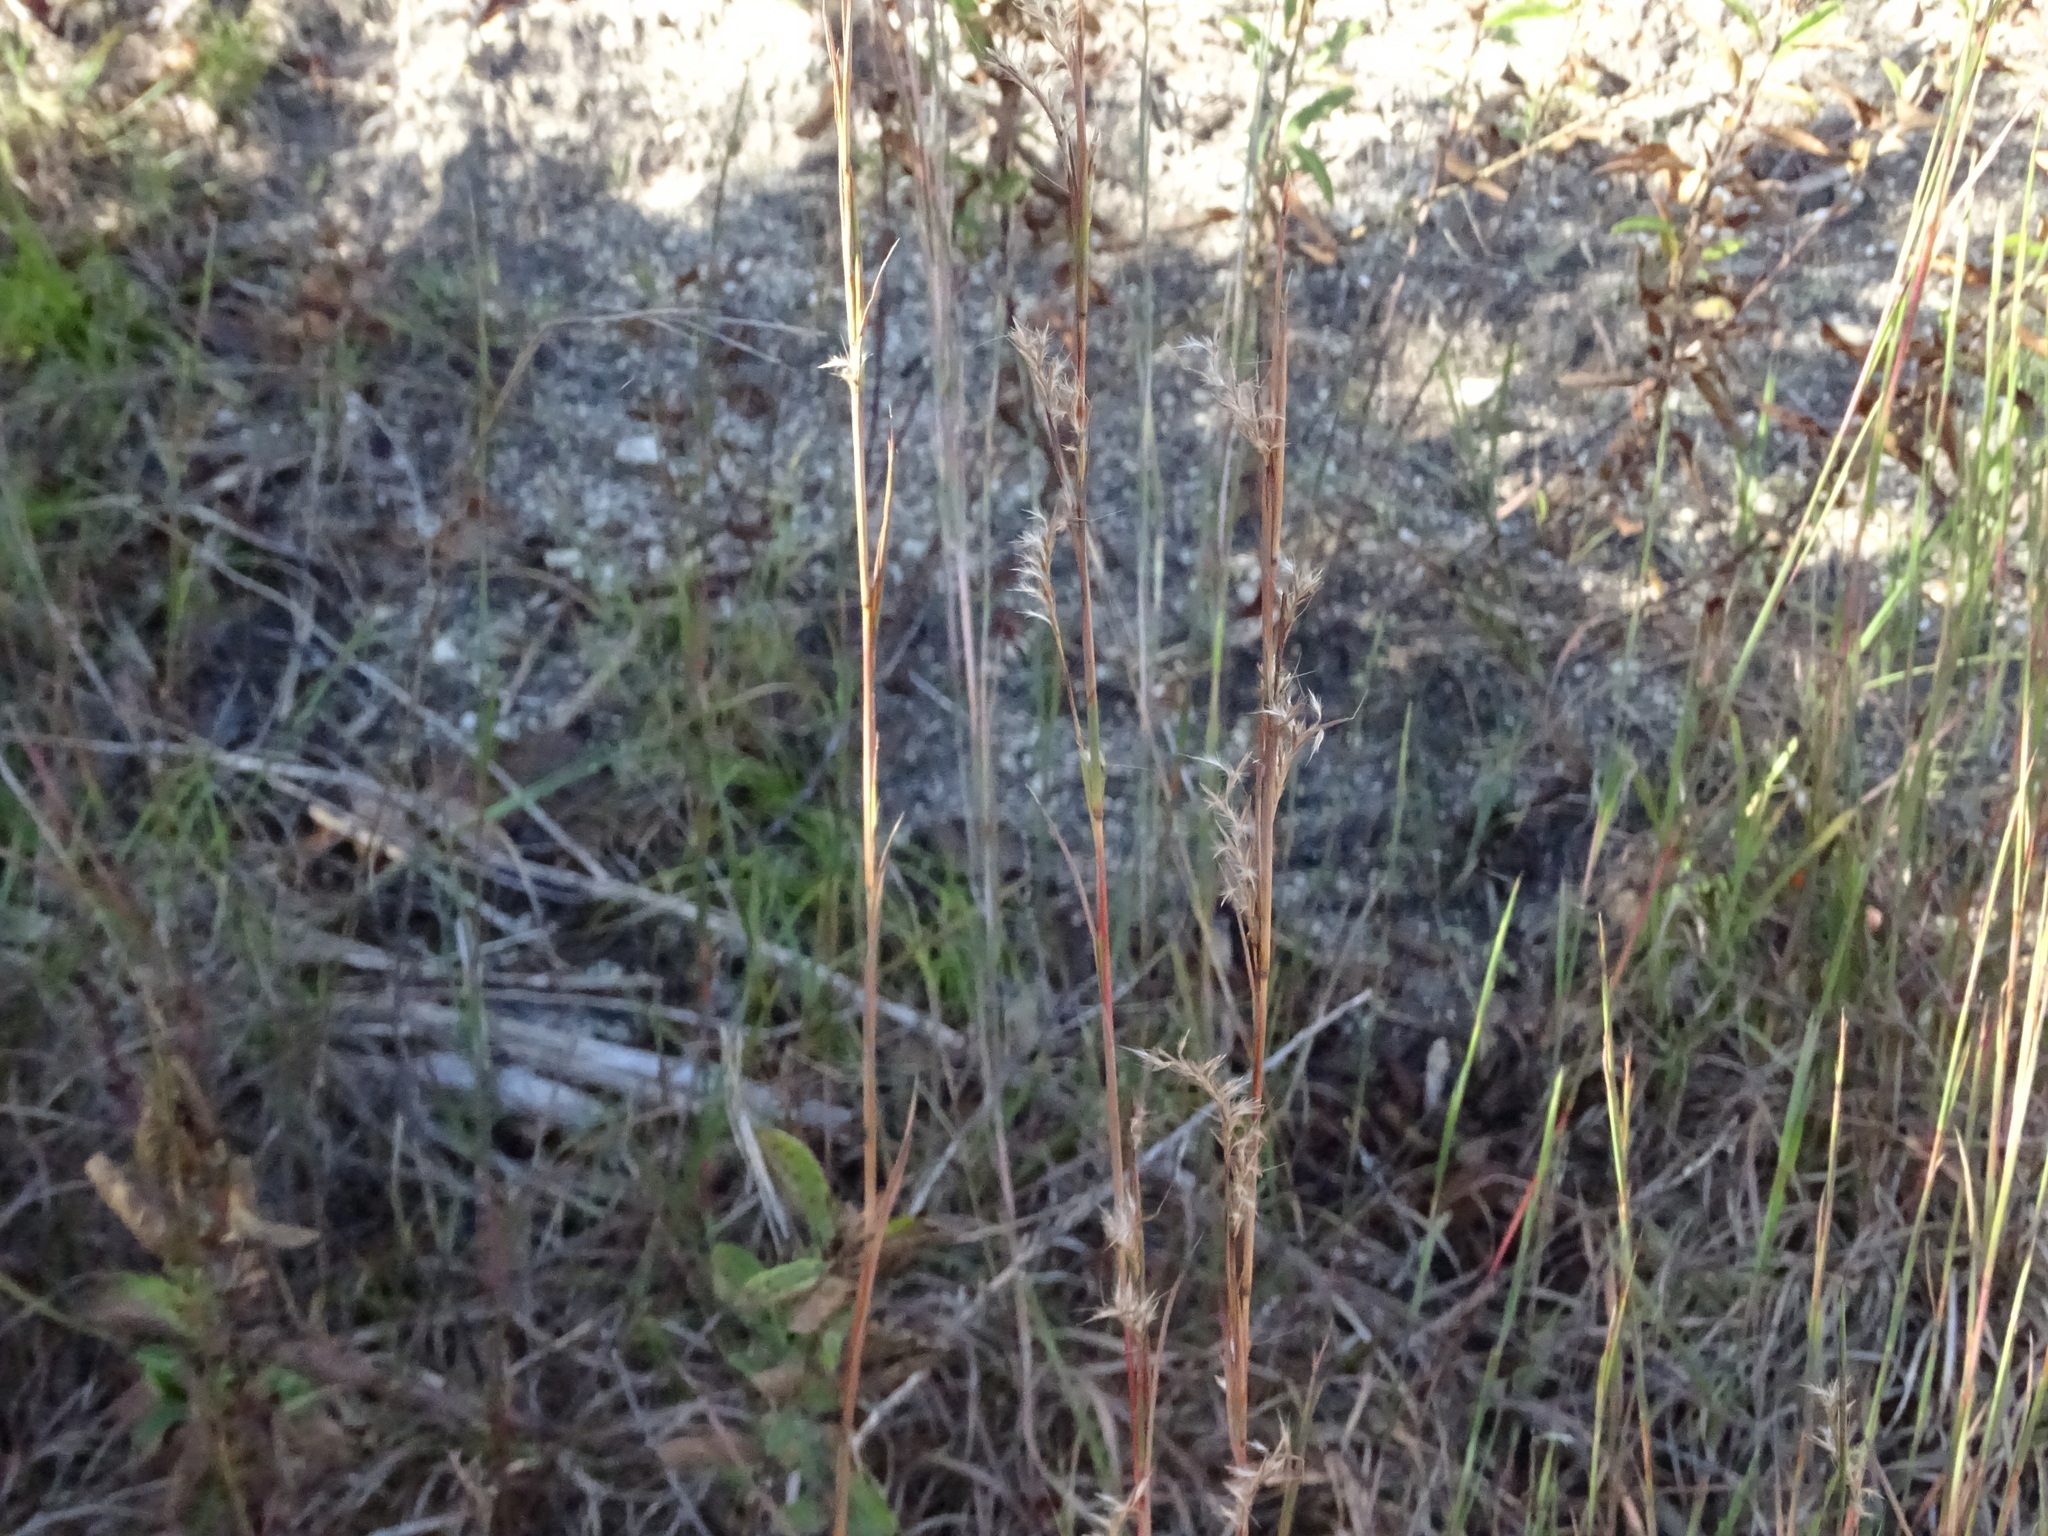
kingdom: Plantae
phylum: Tracheophyta
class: Liliopsida
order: Poales
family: Poaceae
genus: Schizachyrium
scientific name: Schizachyrium scoparium
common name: Little bluestem
